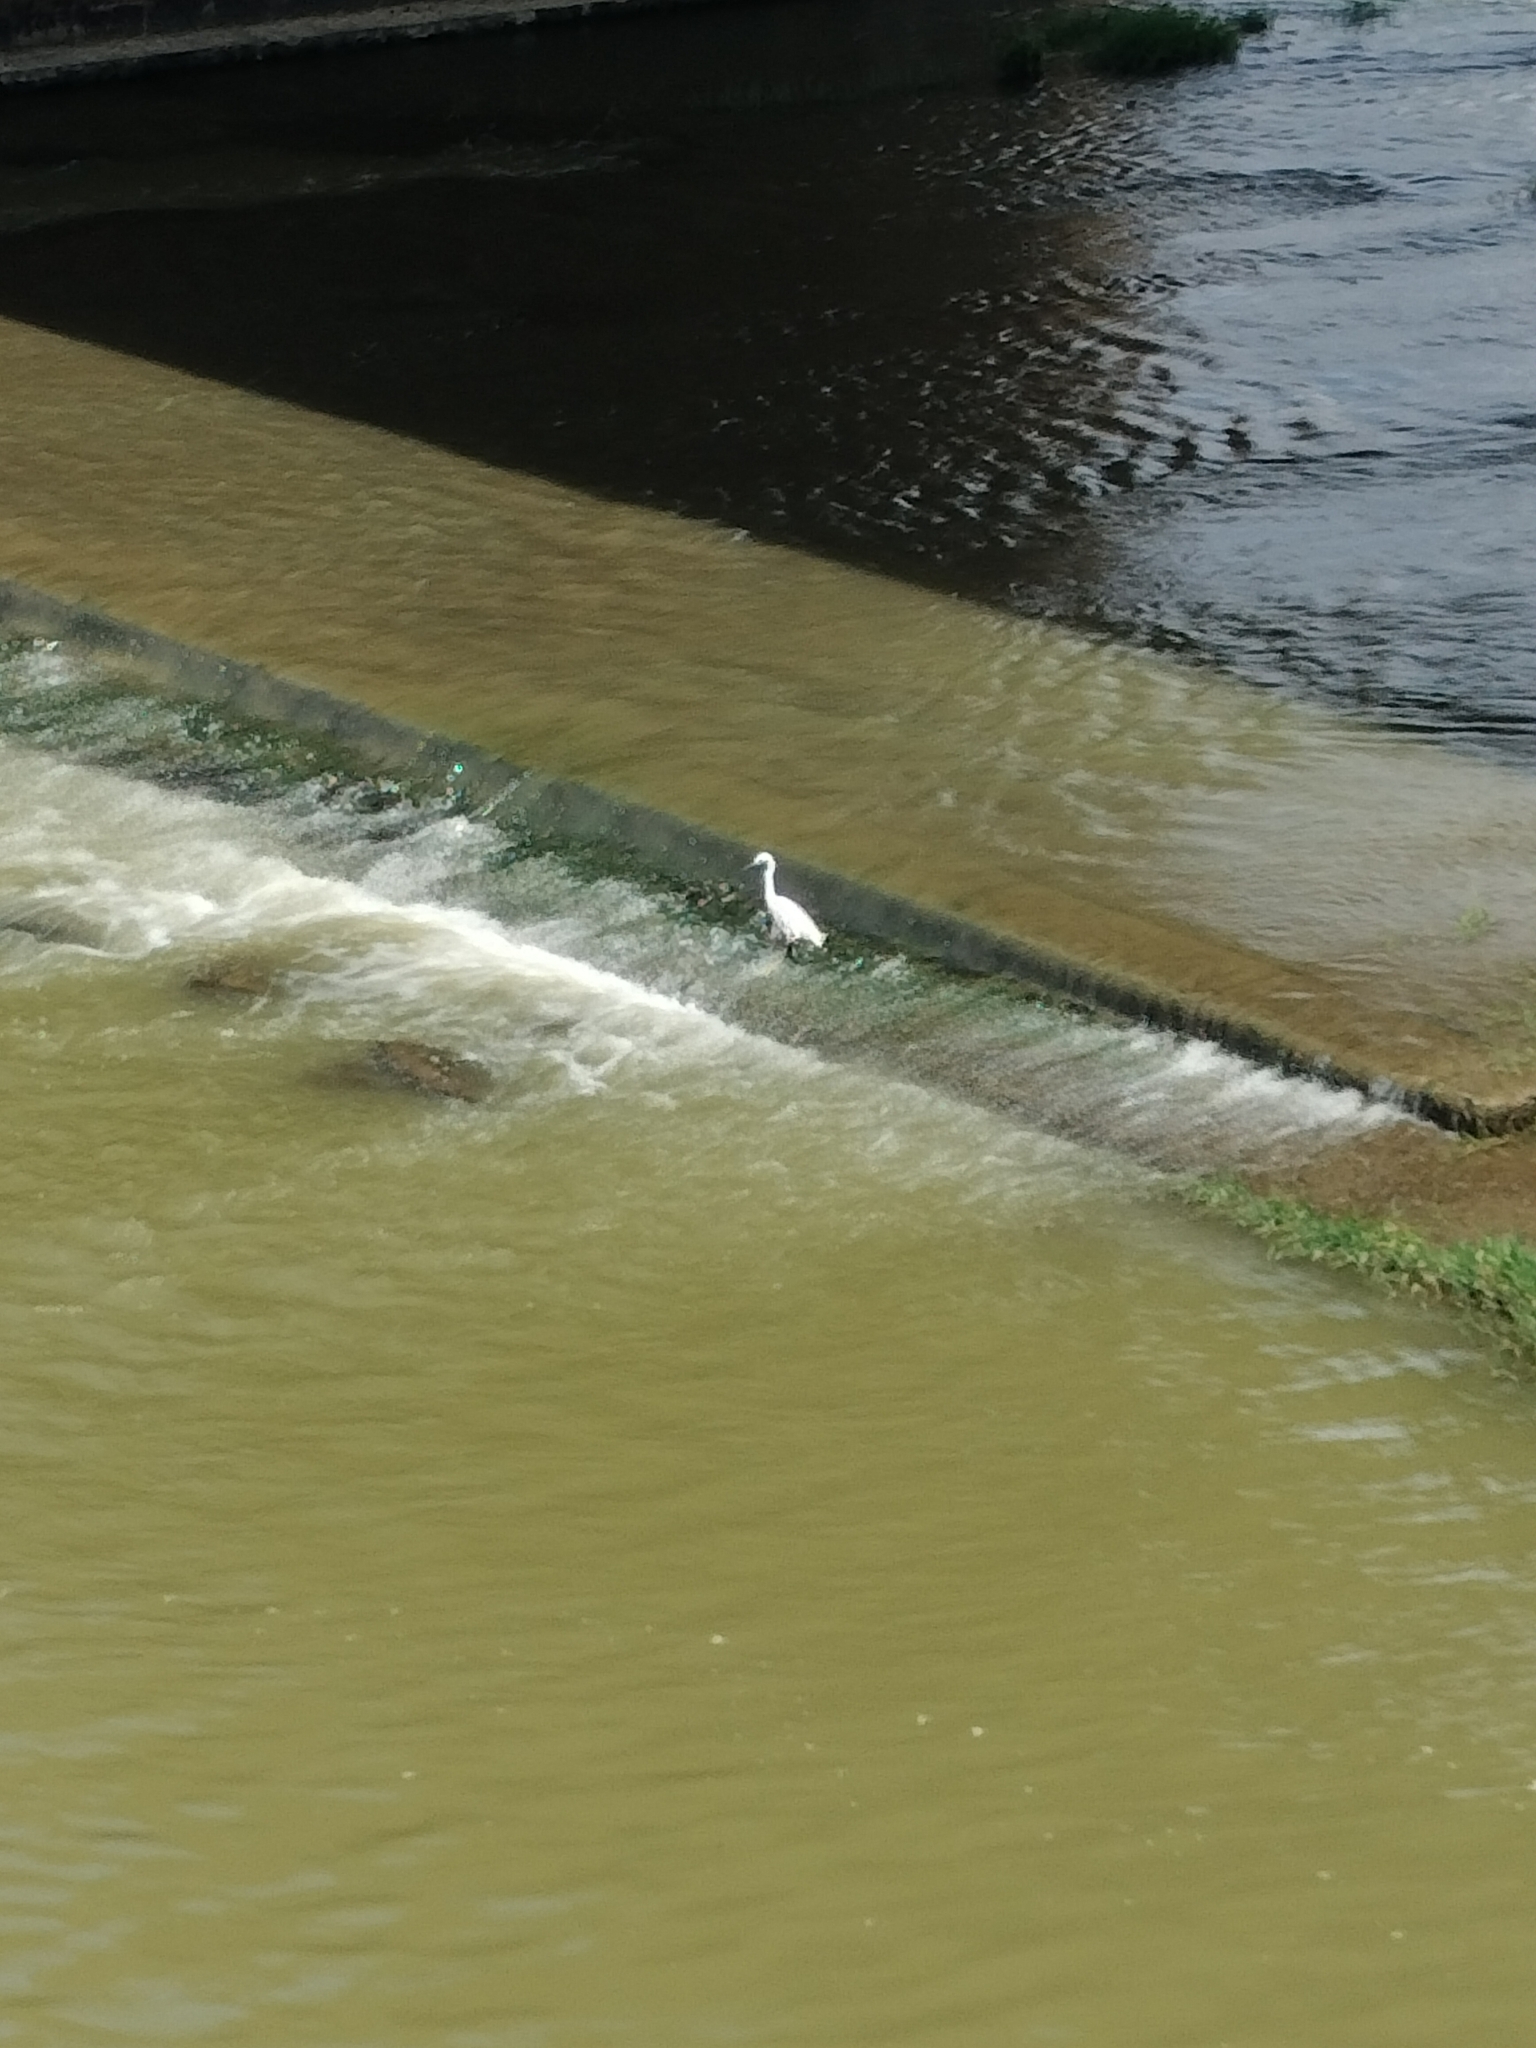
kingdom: Animalia
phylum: Chordata
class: Aves
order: Pelecaniformes
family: Ardeidae
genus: Egretta
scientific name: Egretta garzetta
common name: Little egret
